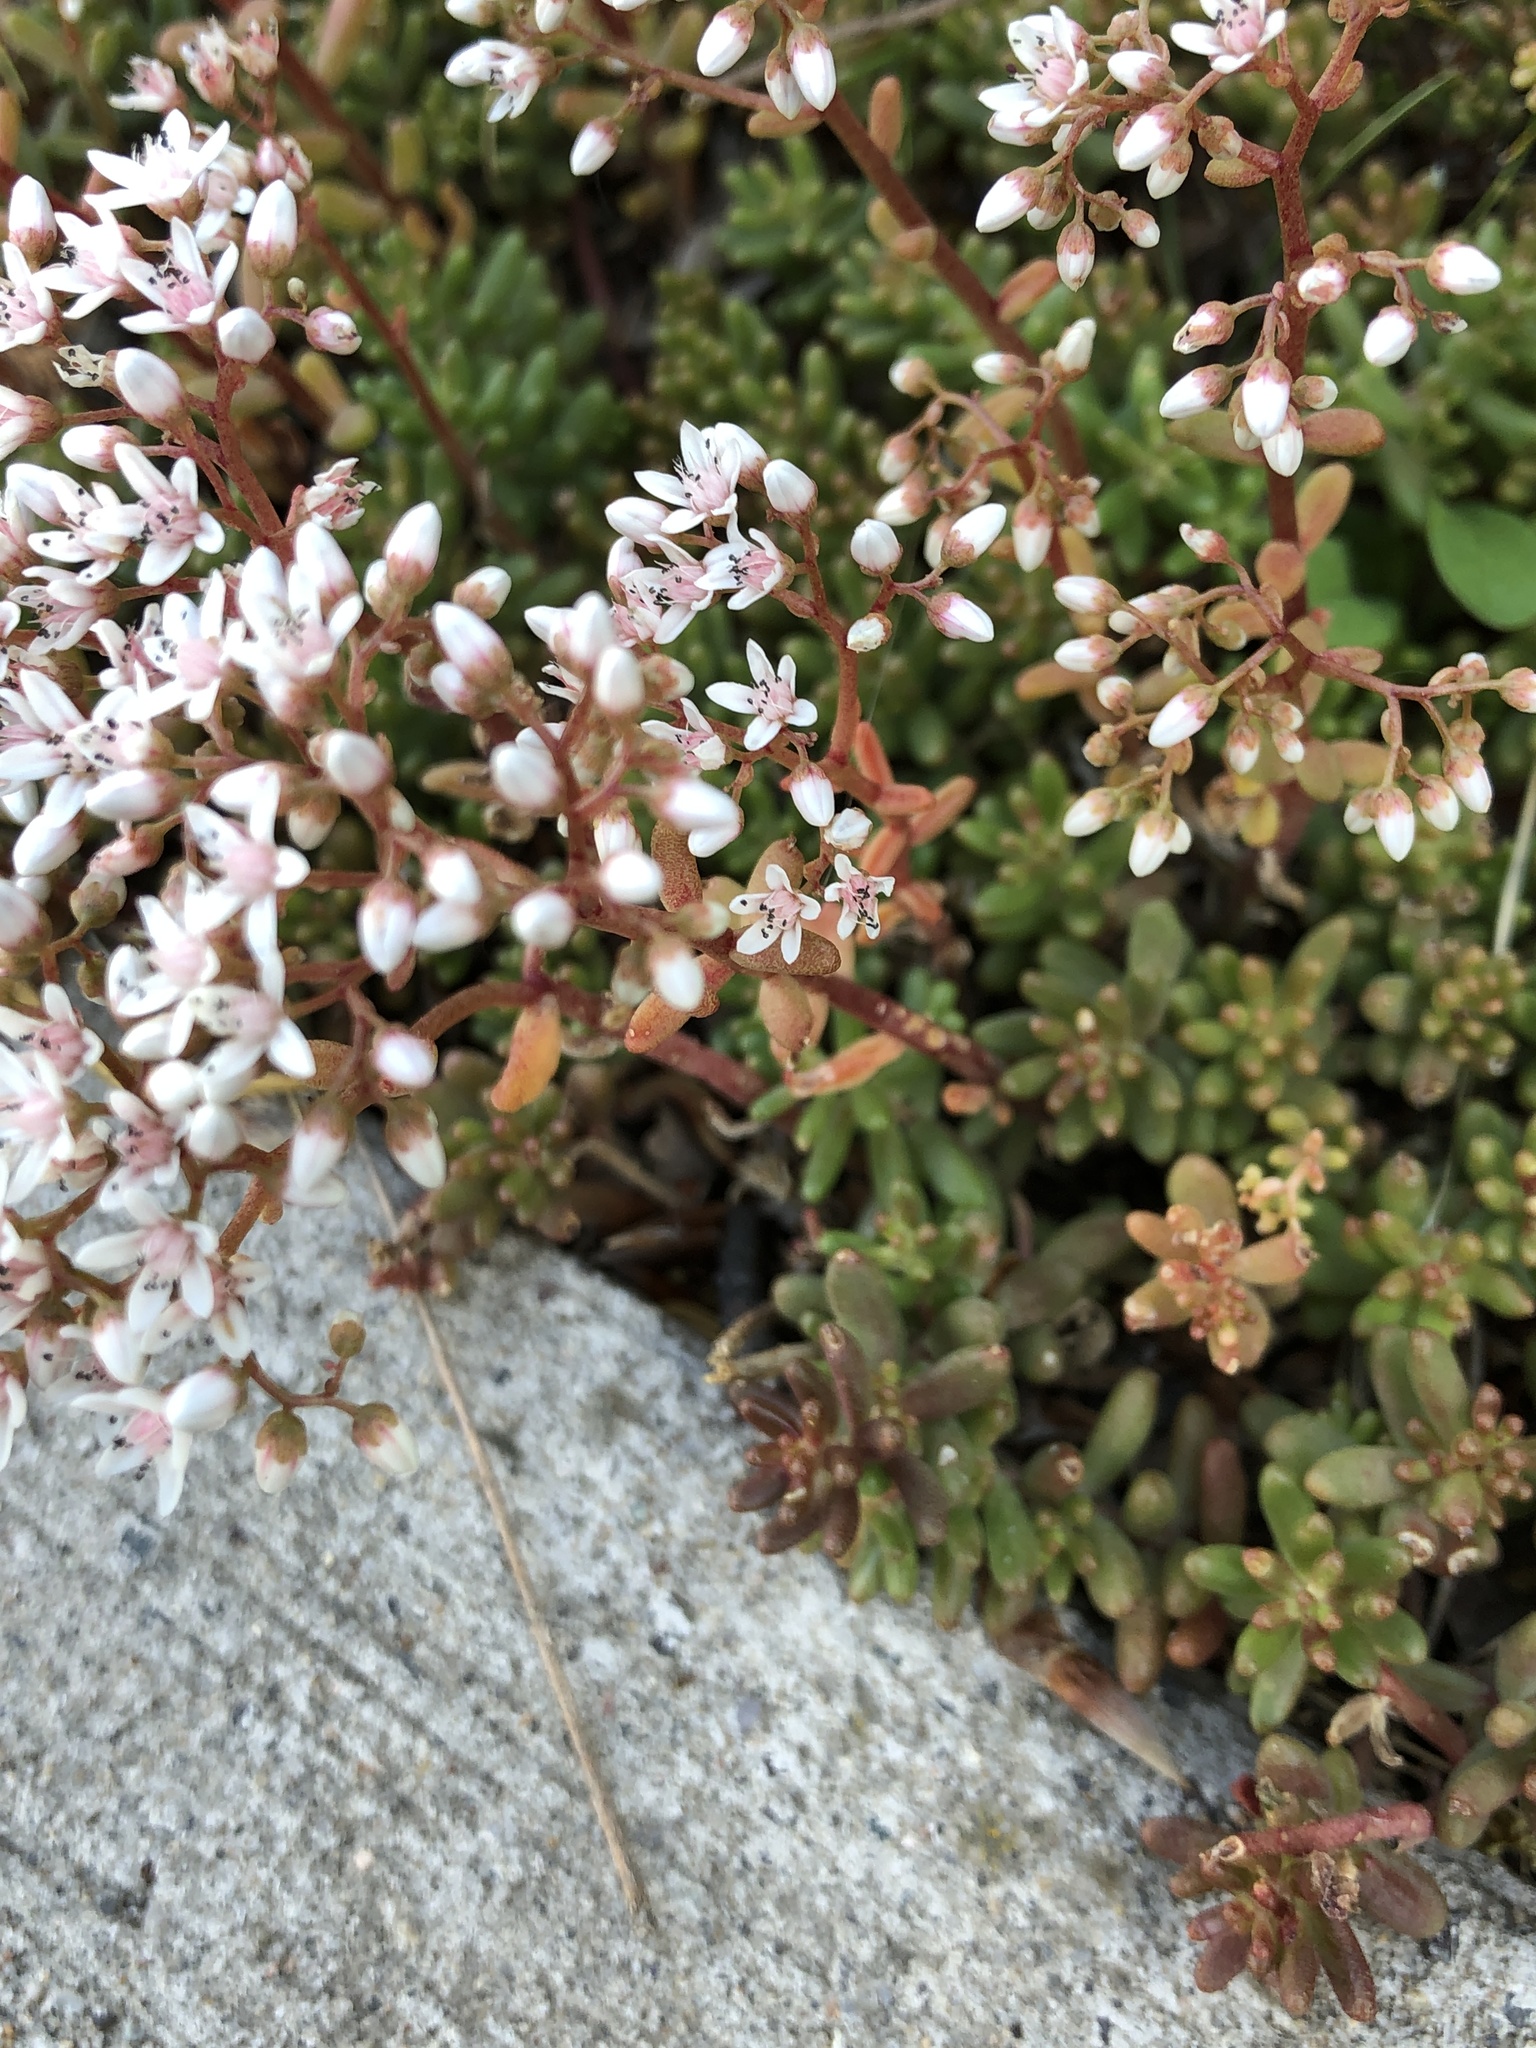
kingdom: Plantae
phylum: Tracheophyta
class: Magnoliopsida
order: Saxifragales
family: Crassulaceae
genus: Sedum
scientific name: Sedum album
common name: White stonecrop
